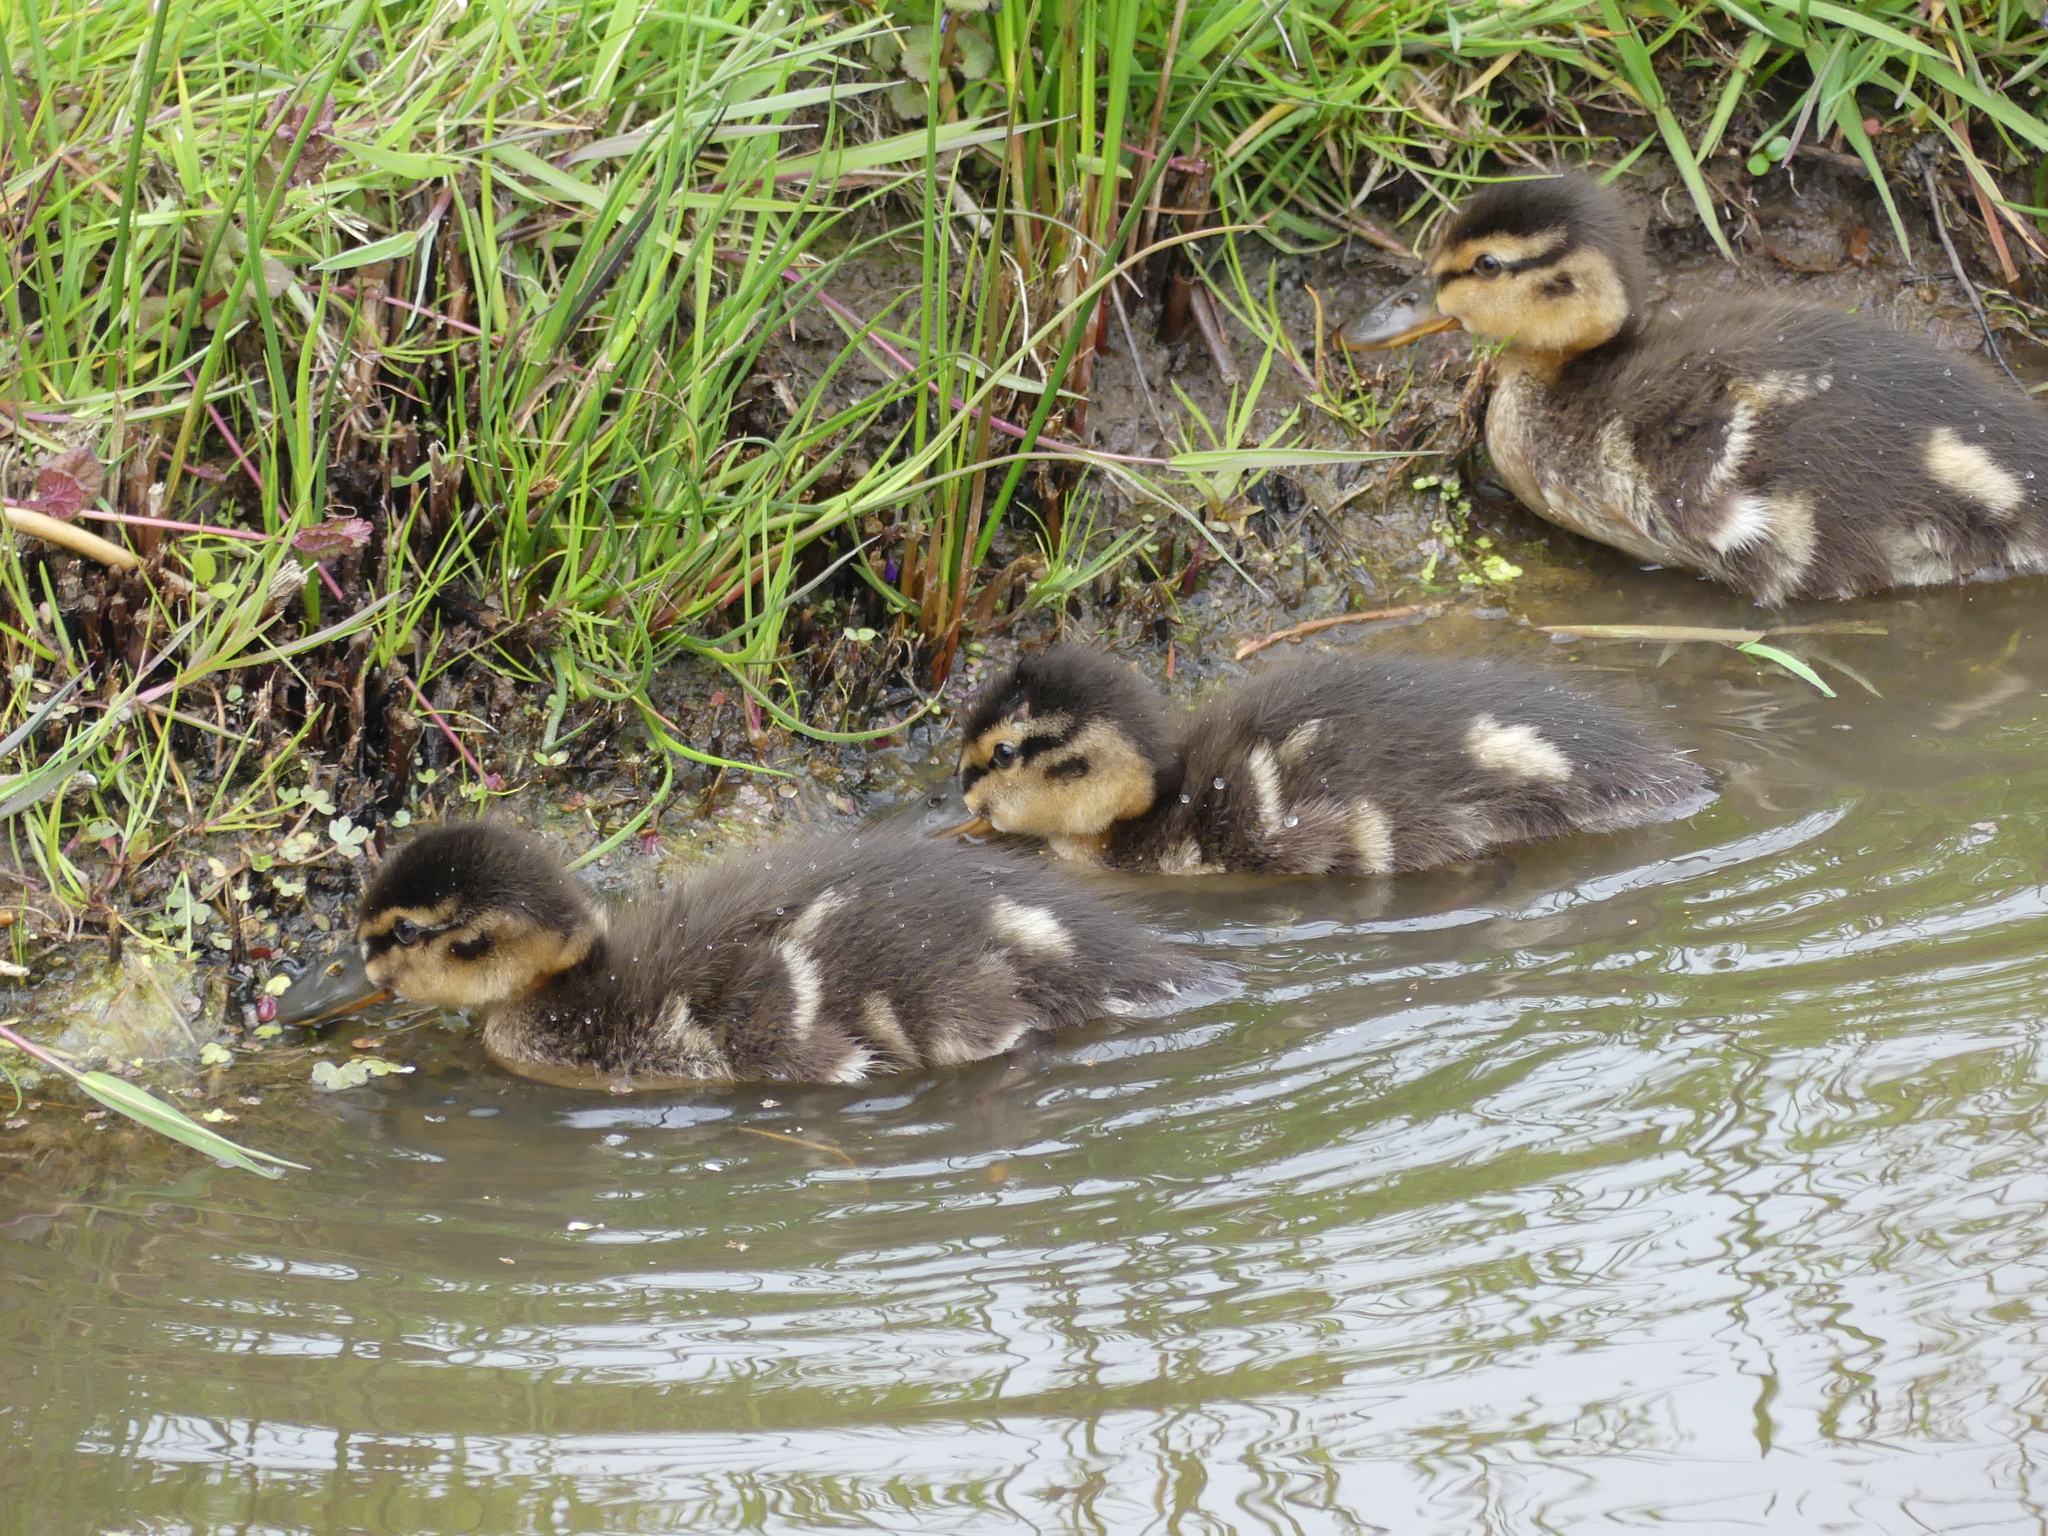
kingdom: Animalia
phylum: Chordata
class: Aves
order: Anseriformes
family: Anatidae
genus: Anas
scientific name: Anas platyrhynchos
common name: Mallard
